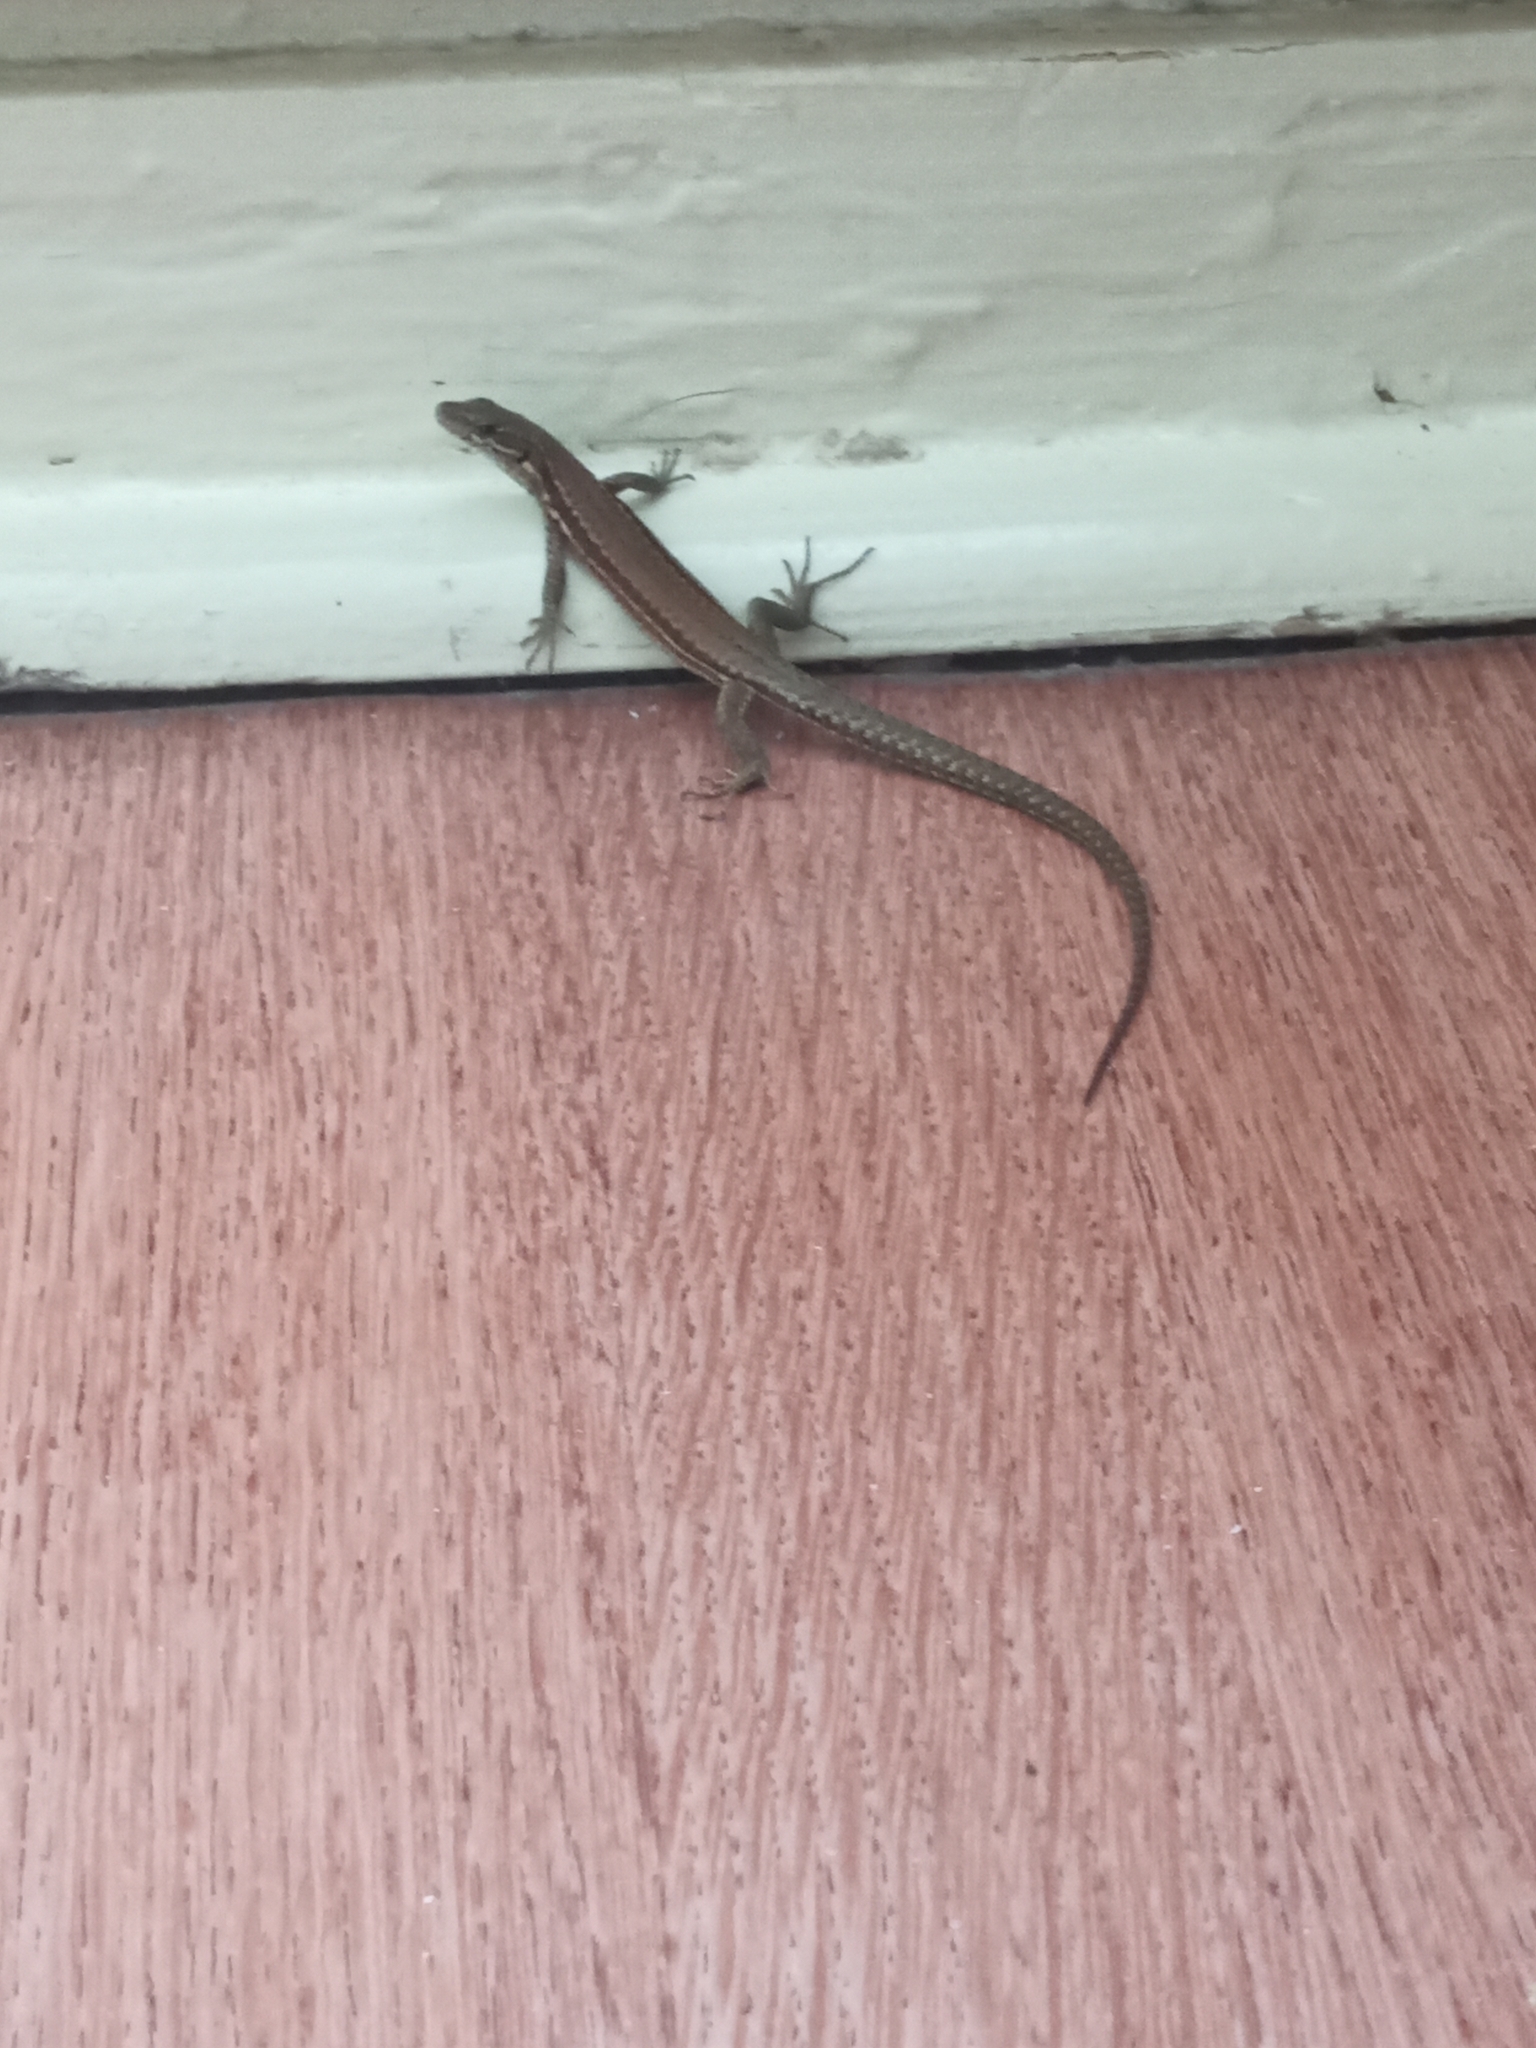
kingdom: Animalia
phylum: Chordata
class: Squamata
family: Lacertidae
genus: Podarcis
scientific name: Podarcis muralis
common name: Common wall lizard
